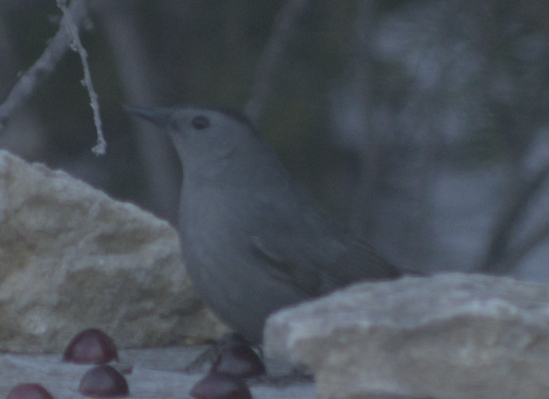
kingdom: Animalia
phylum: Chordata
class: Aves
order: Passeriformes
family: Mimidae
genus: Dumetella
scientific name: Dumetella carolinensis
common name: Gray catbird
